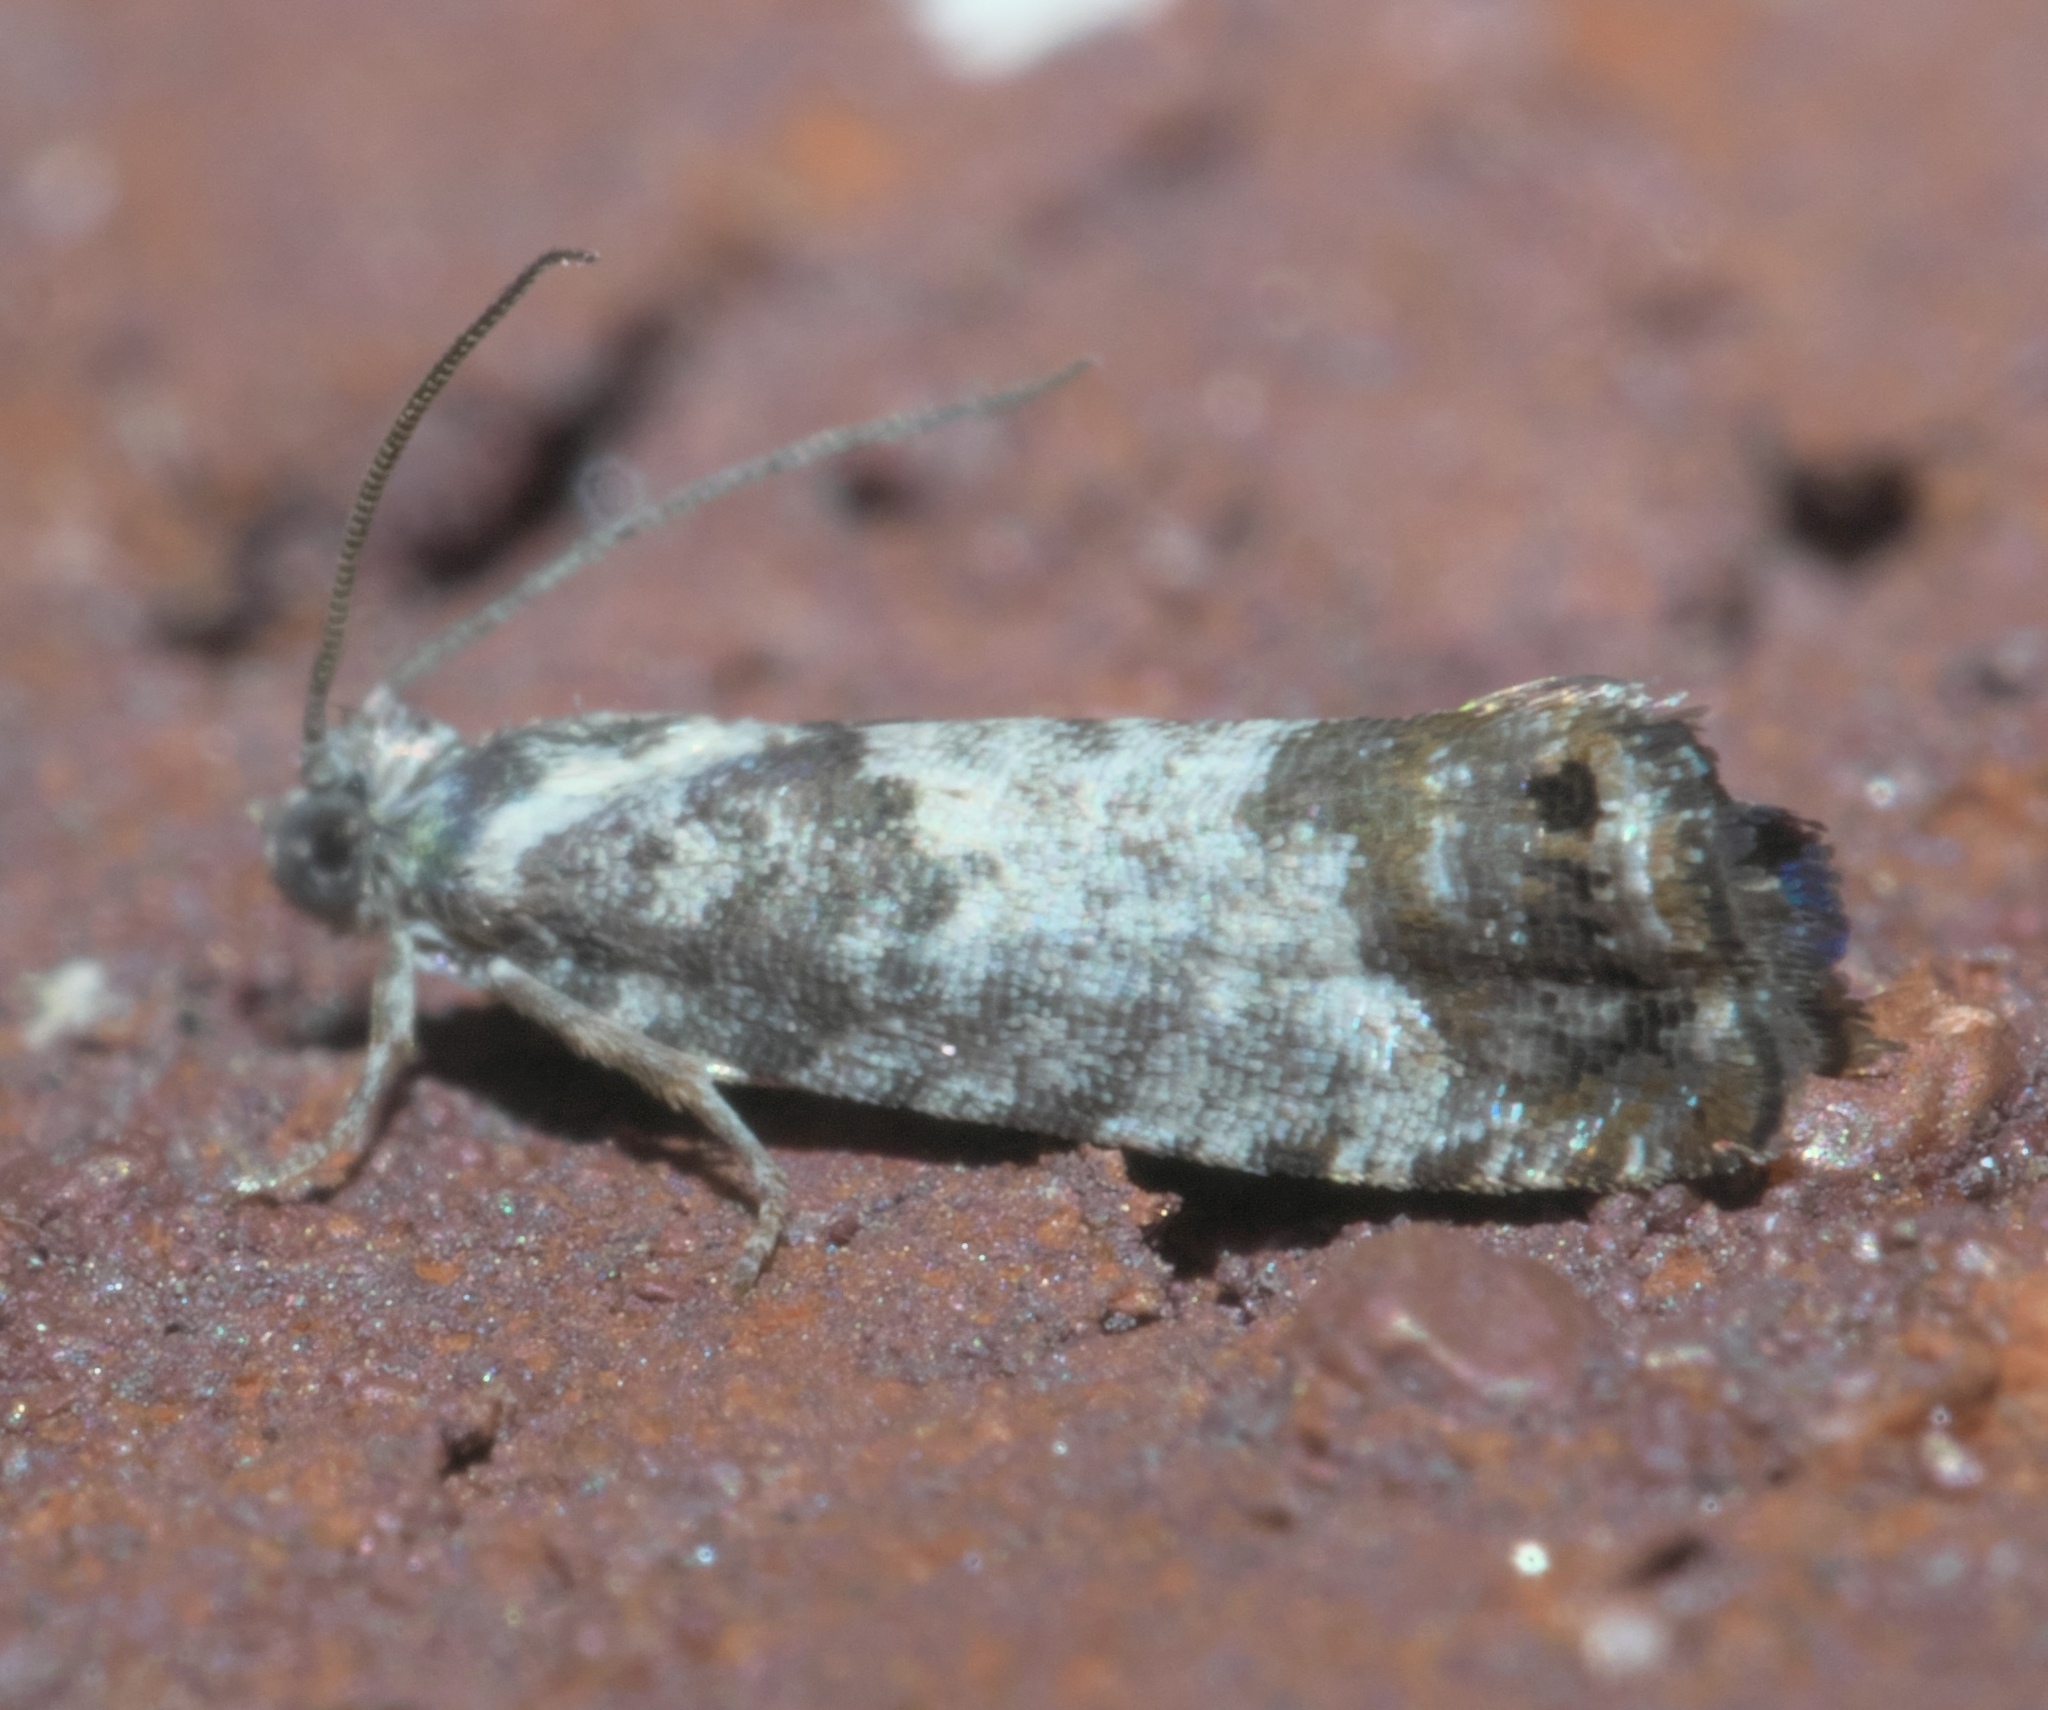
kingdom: Animalia
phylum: Arthropoda
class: Insecta
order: Lepidoptera
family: Tortricidae
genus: Pammene
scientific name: Pammene medioalbana
